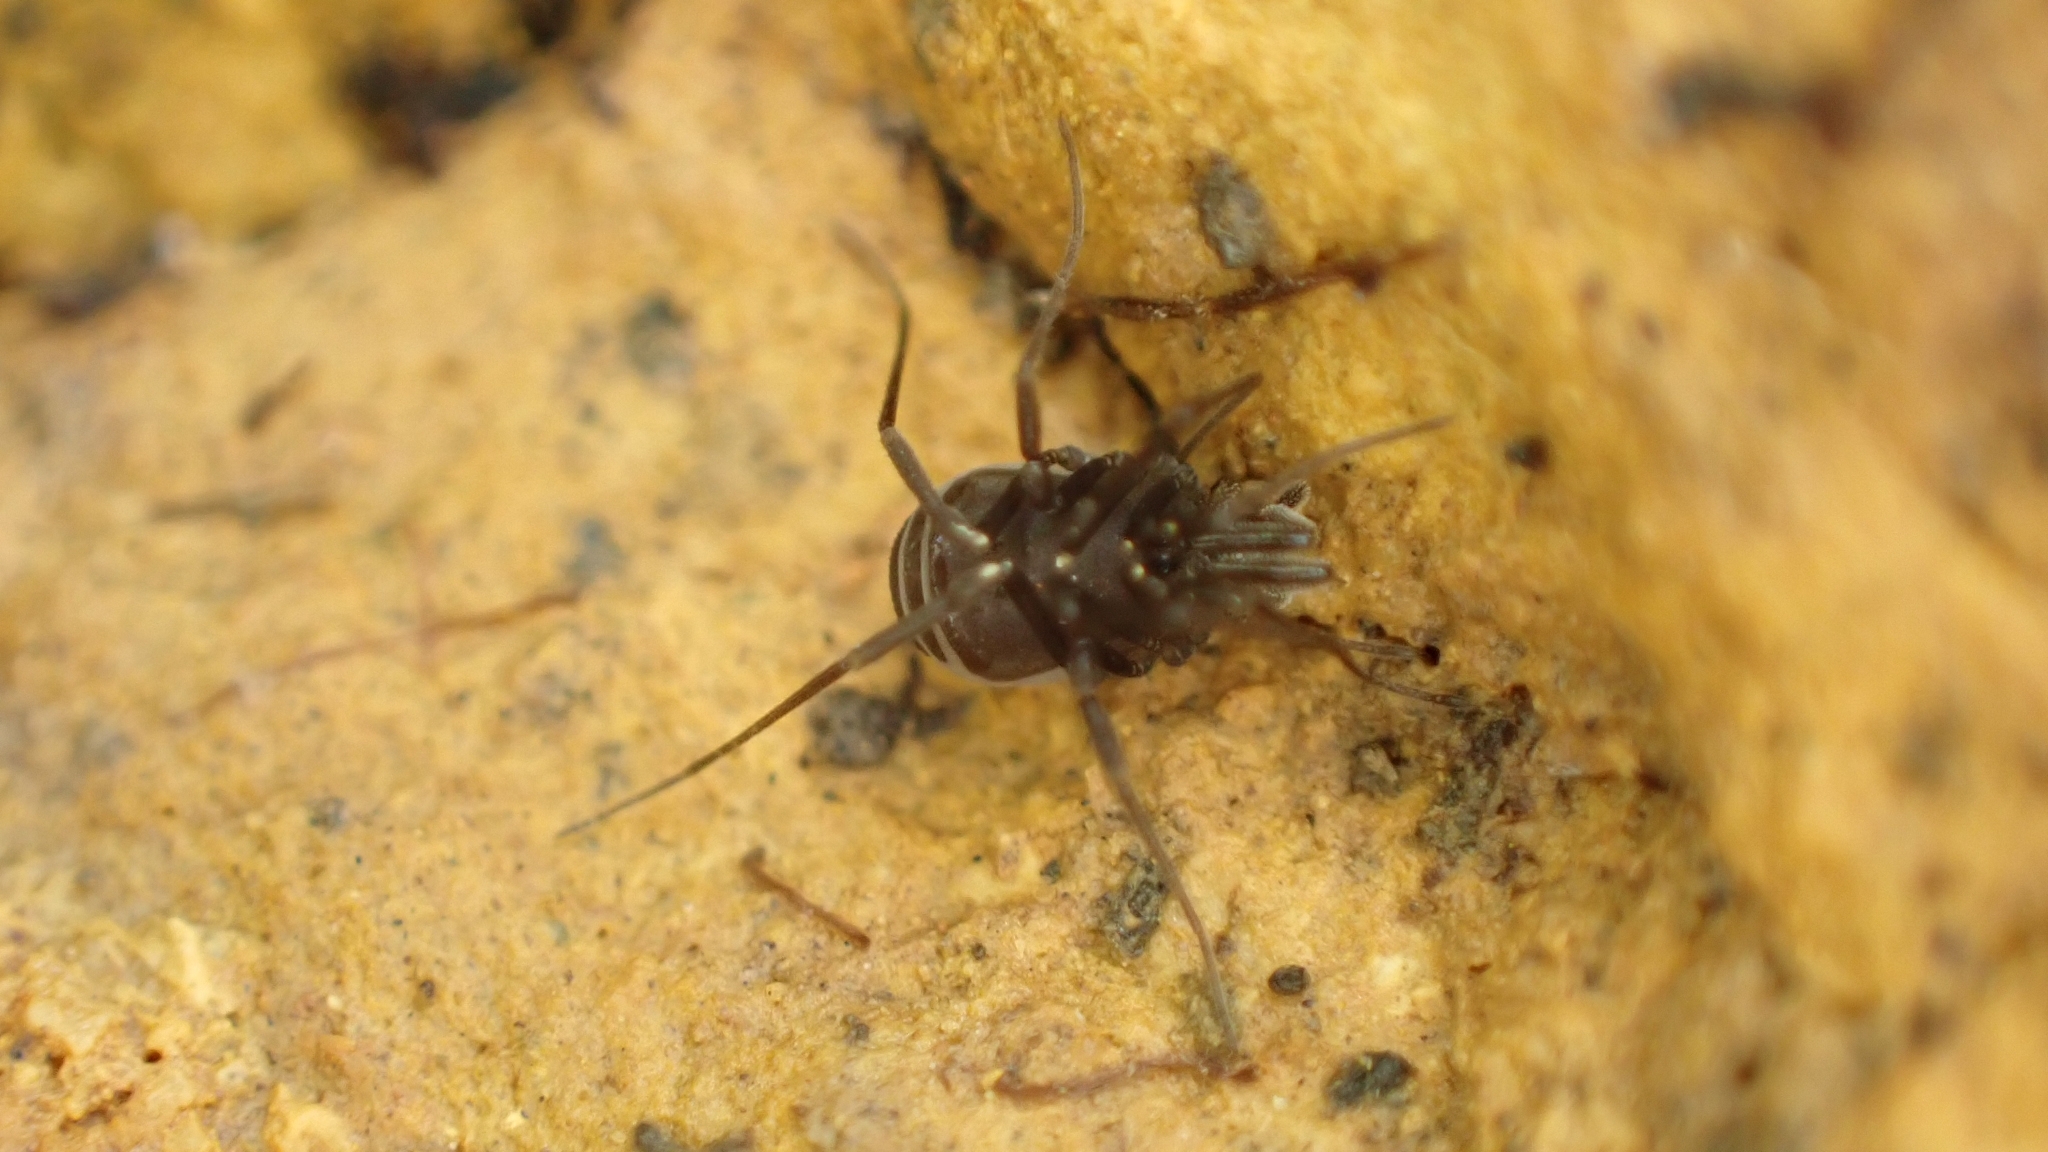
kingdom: Animalia
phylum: Arthropoda
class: Arachnida
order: Opiliones
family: Nemastomatidae
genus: Nemastomella
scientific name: Nemastomella hankiewiczii
